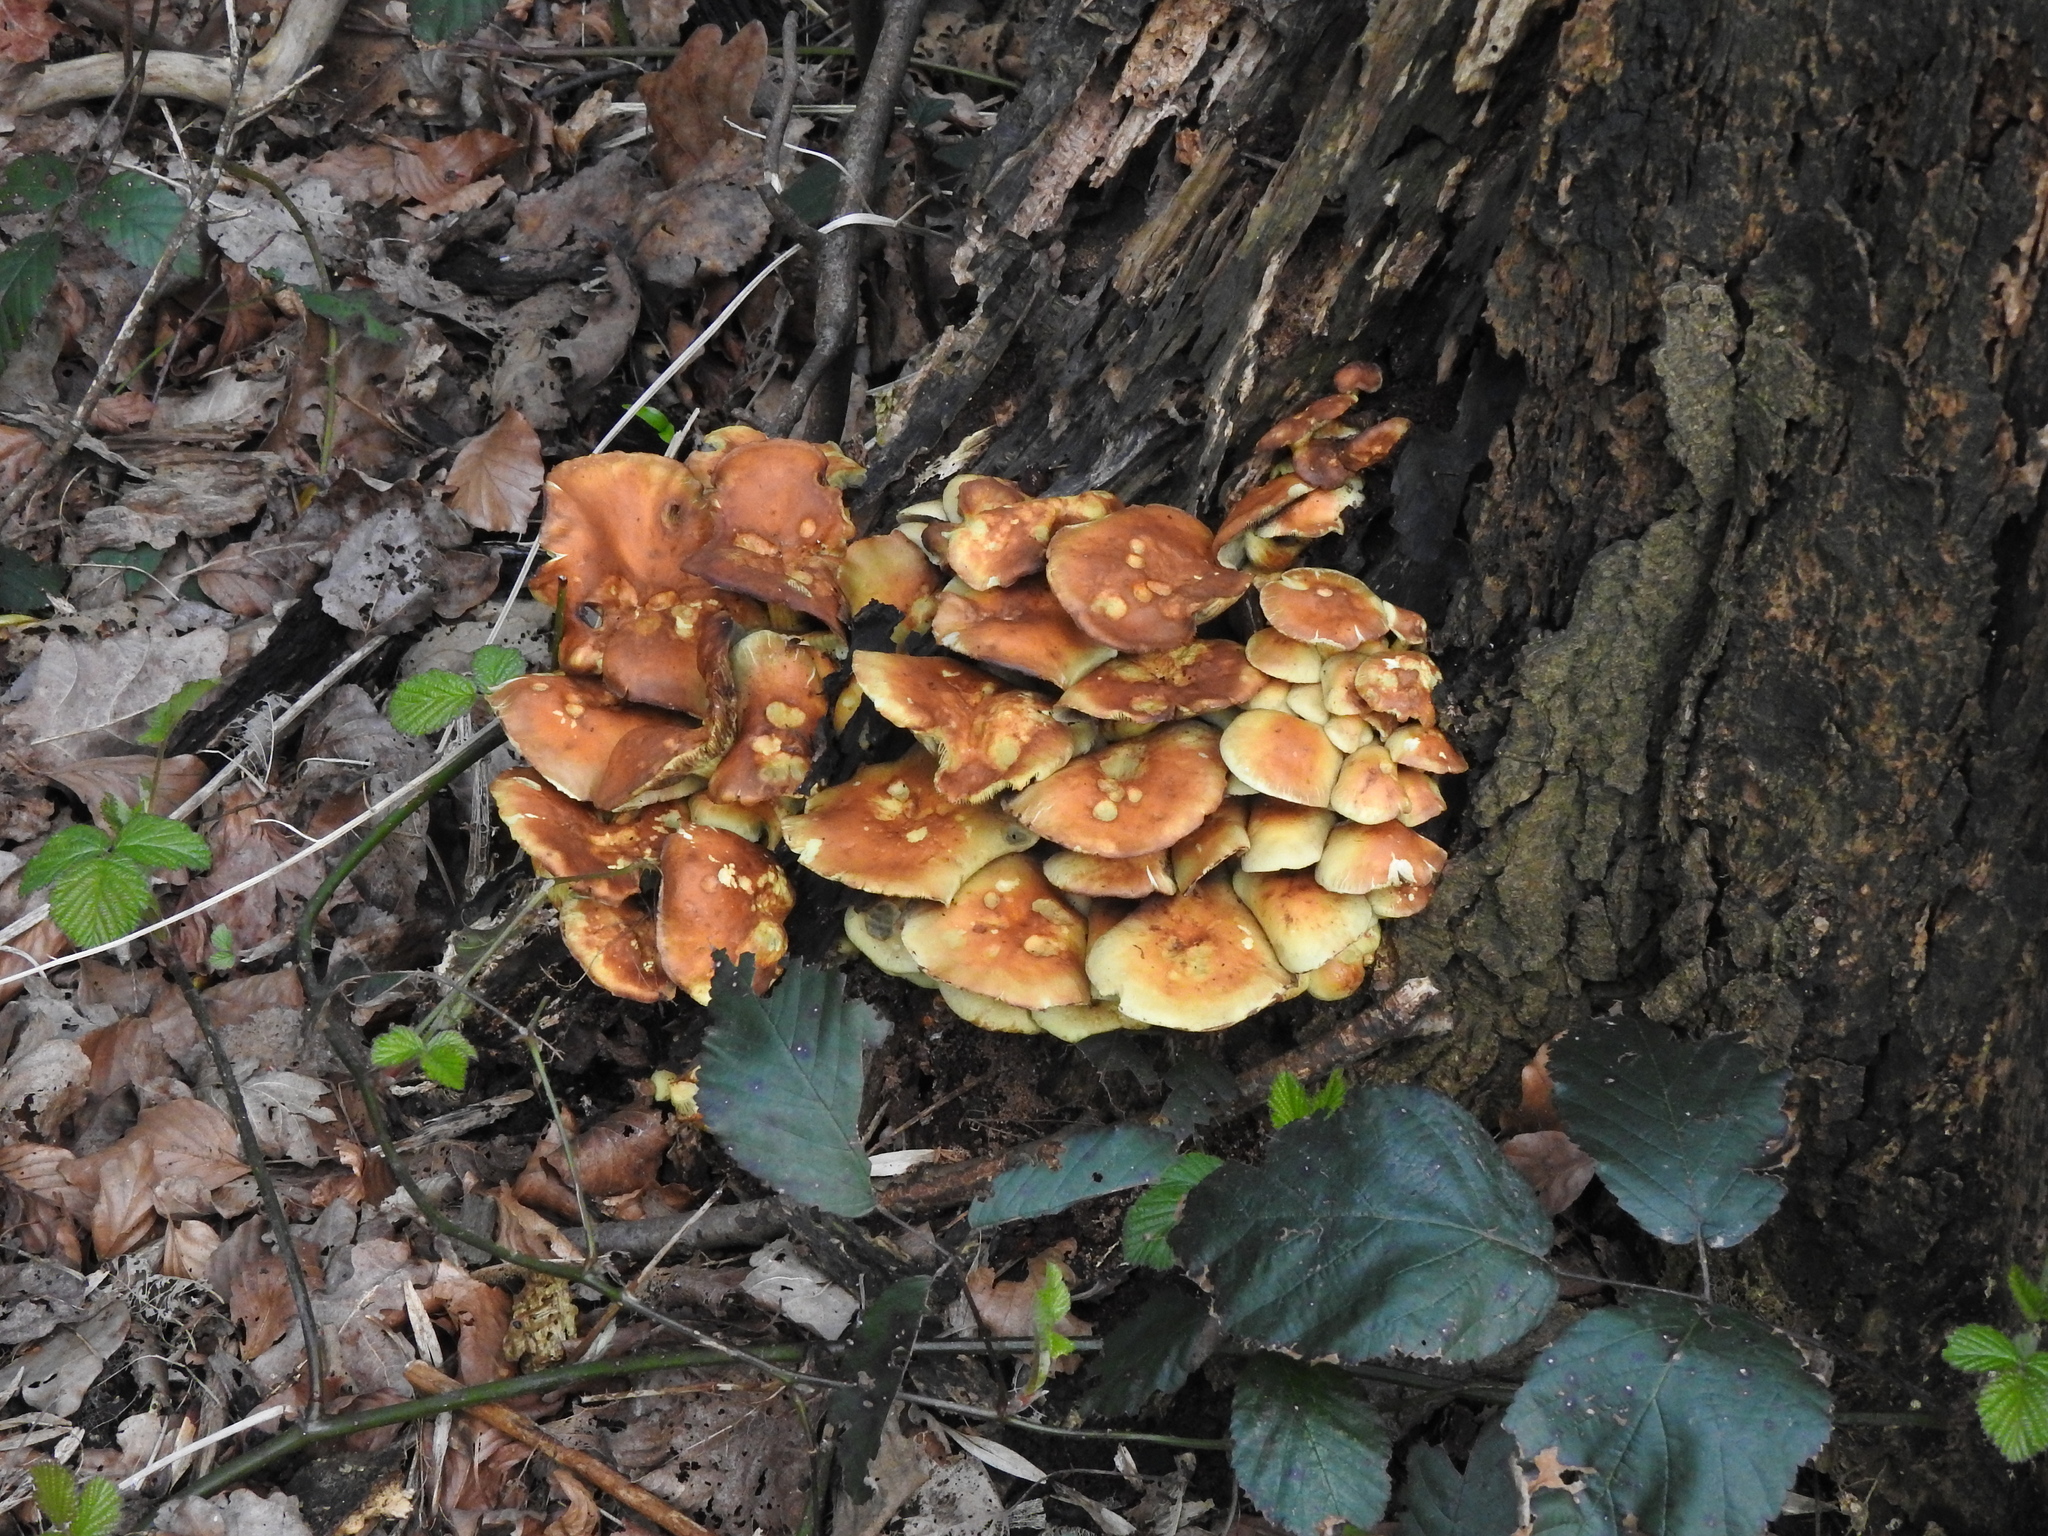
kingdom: Fungi
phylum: Basidiomycota
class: Agaricomycetes
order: Agaricales
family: Strophariaceae
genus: Hypholoma
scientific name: Hypholoma fasciculare
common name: Sulphur tuft
